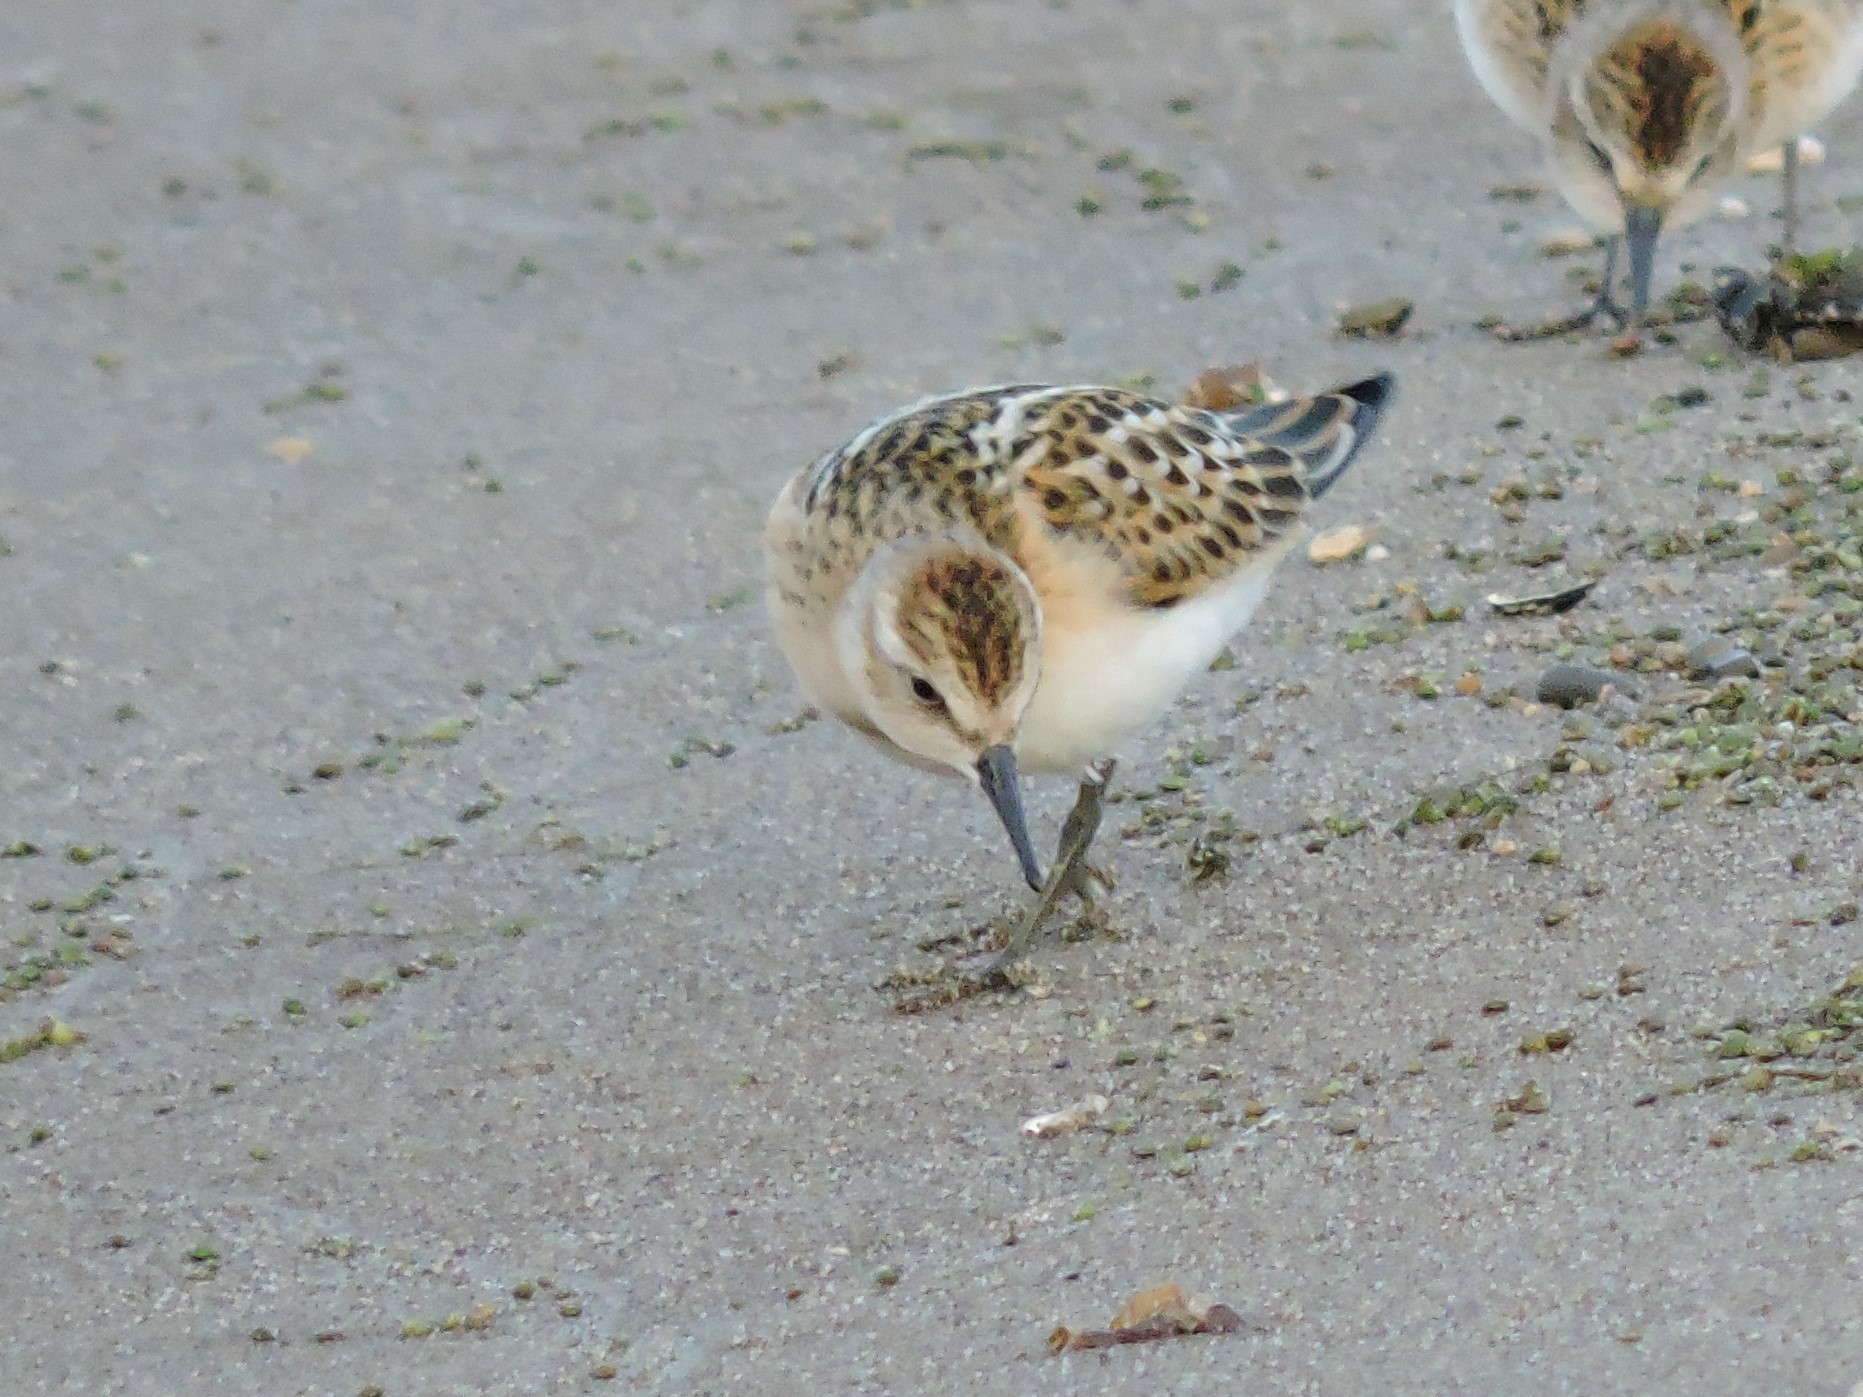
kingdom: Animalia
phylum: Chordata
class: Aves
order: Charadriiformes
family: Scolopacidae
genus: Calidris
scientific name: Calidris minuta
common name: Little stint
